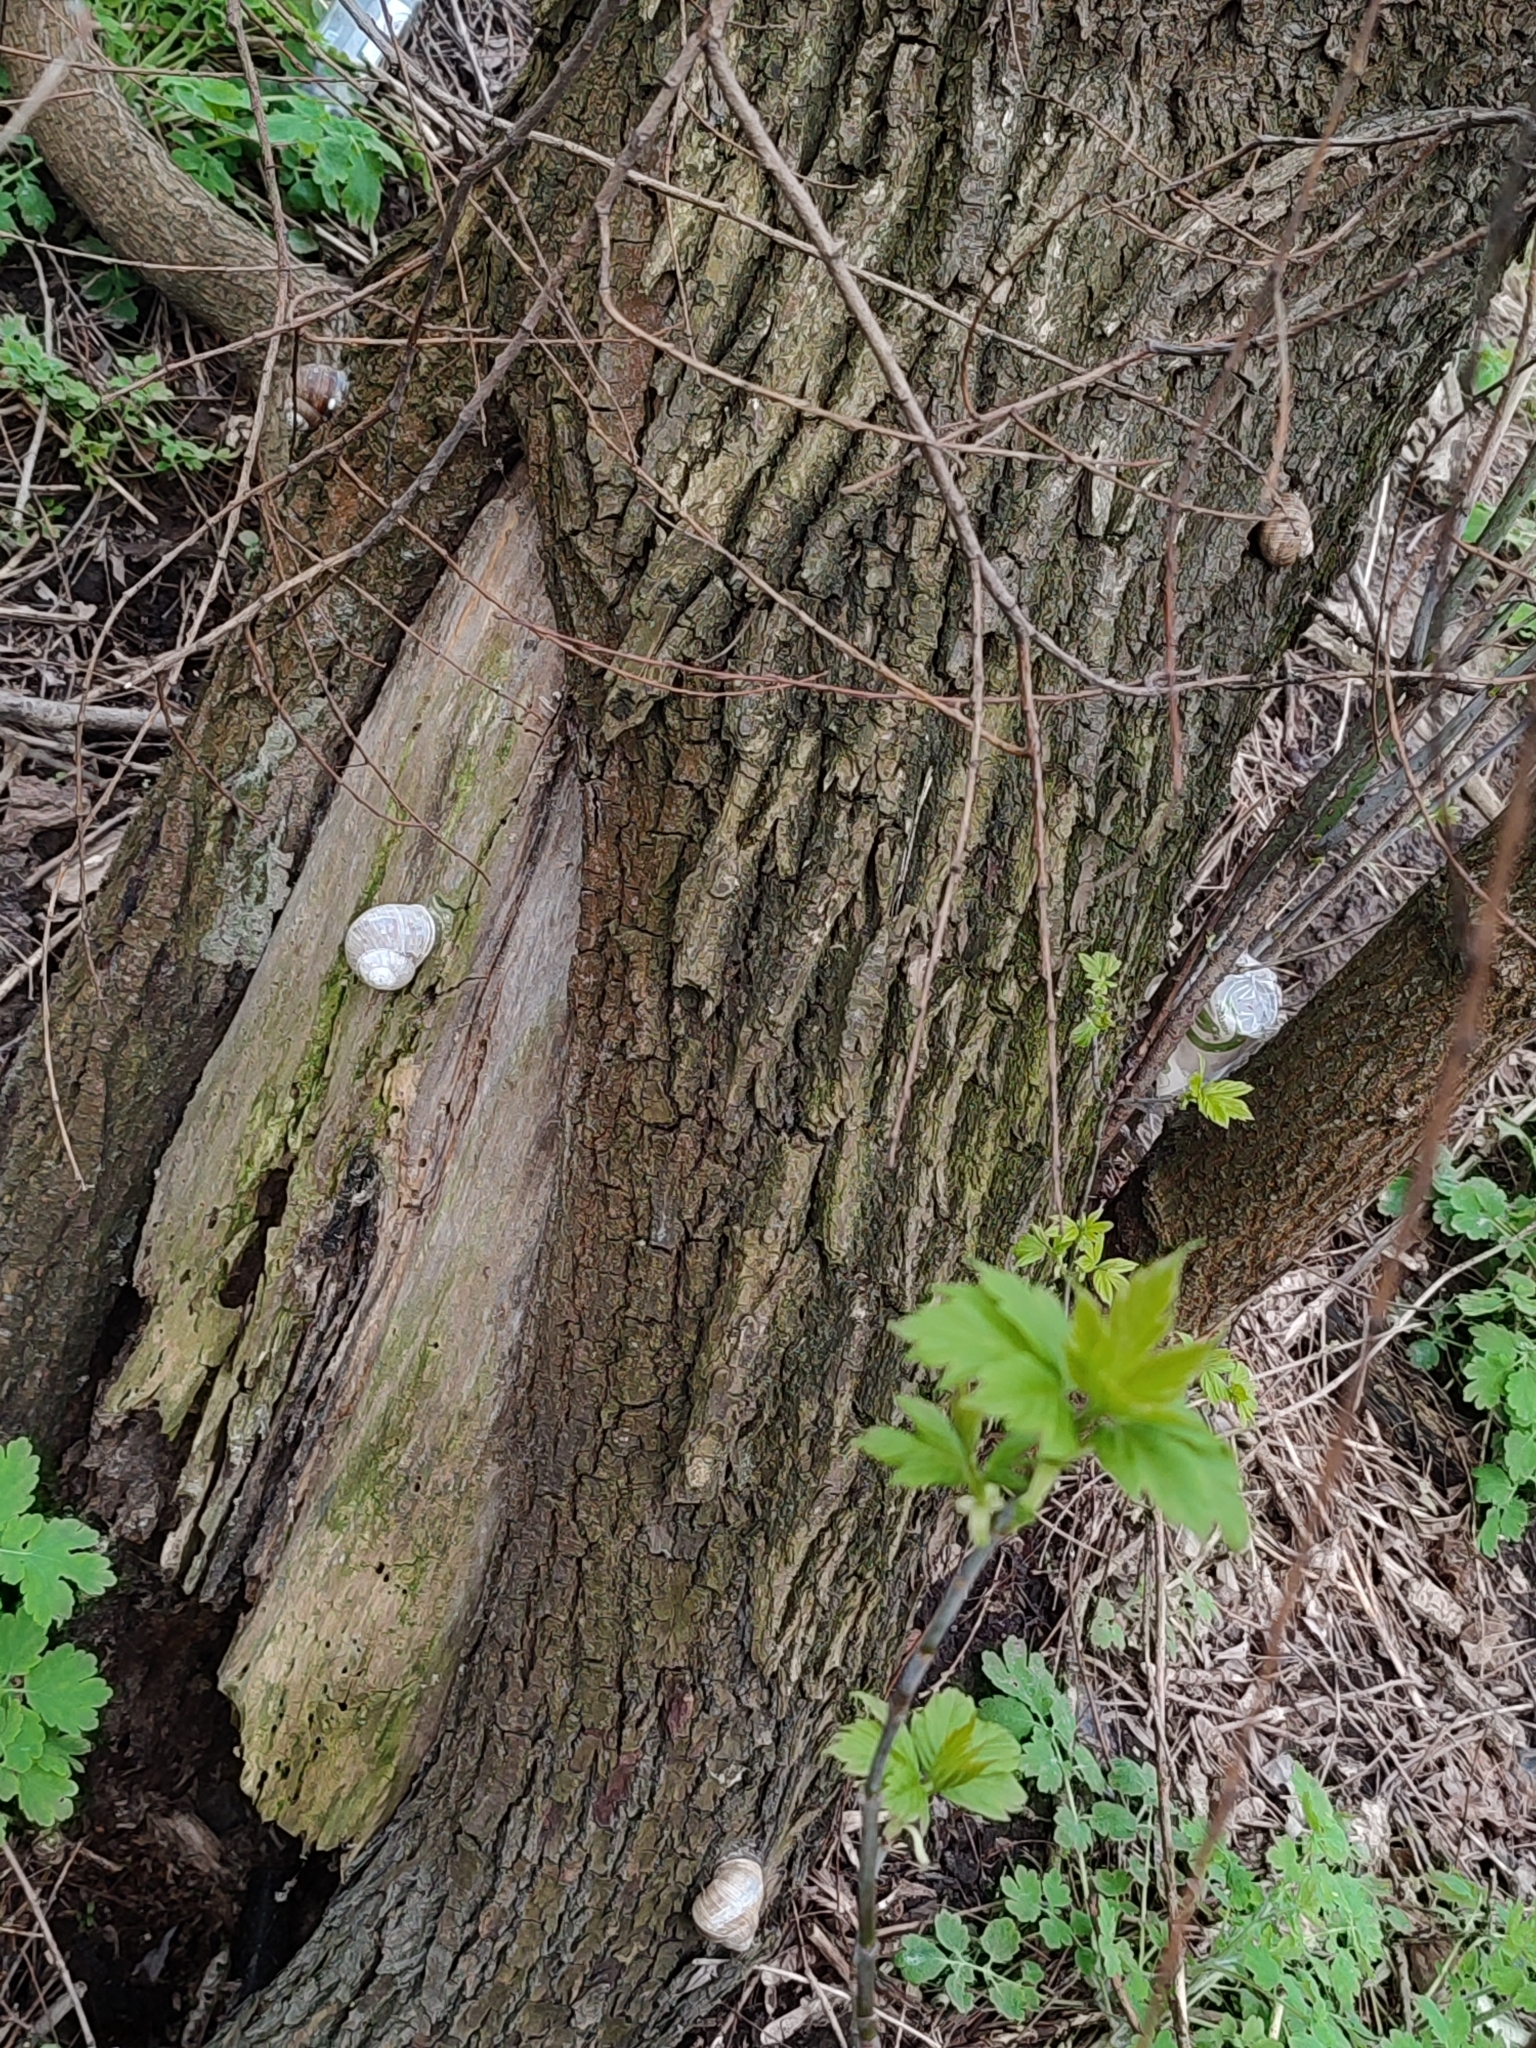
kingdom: Animalia
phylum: Mollusca
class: Gastropoda
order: Stylommatophora
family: Helicidae
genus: Helix
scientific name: Helix pomatia
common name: Roman snail
